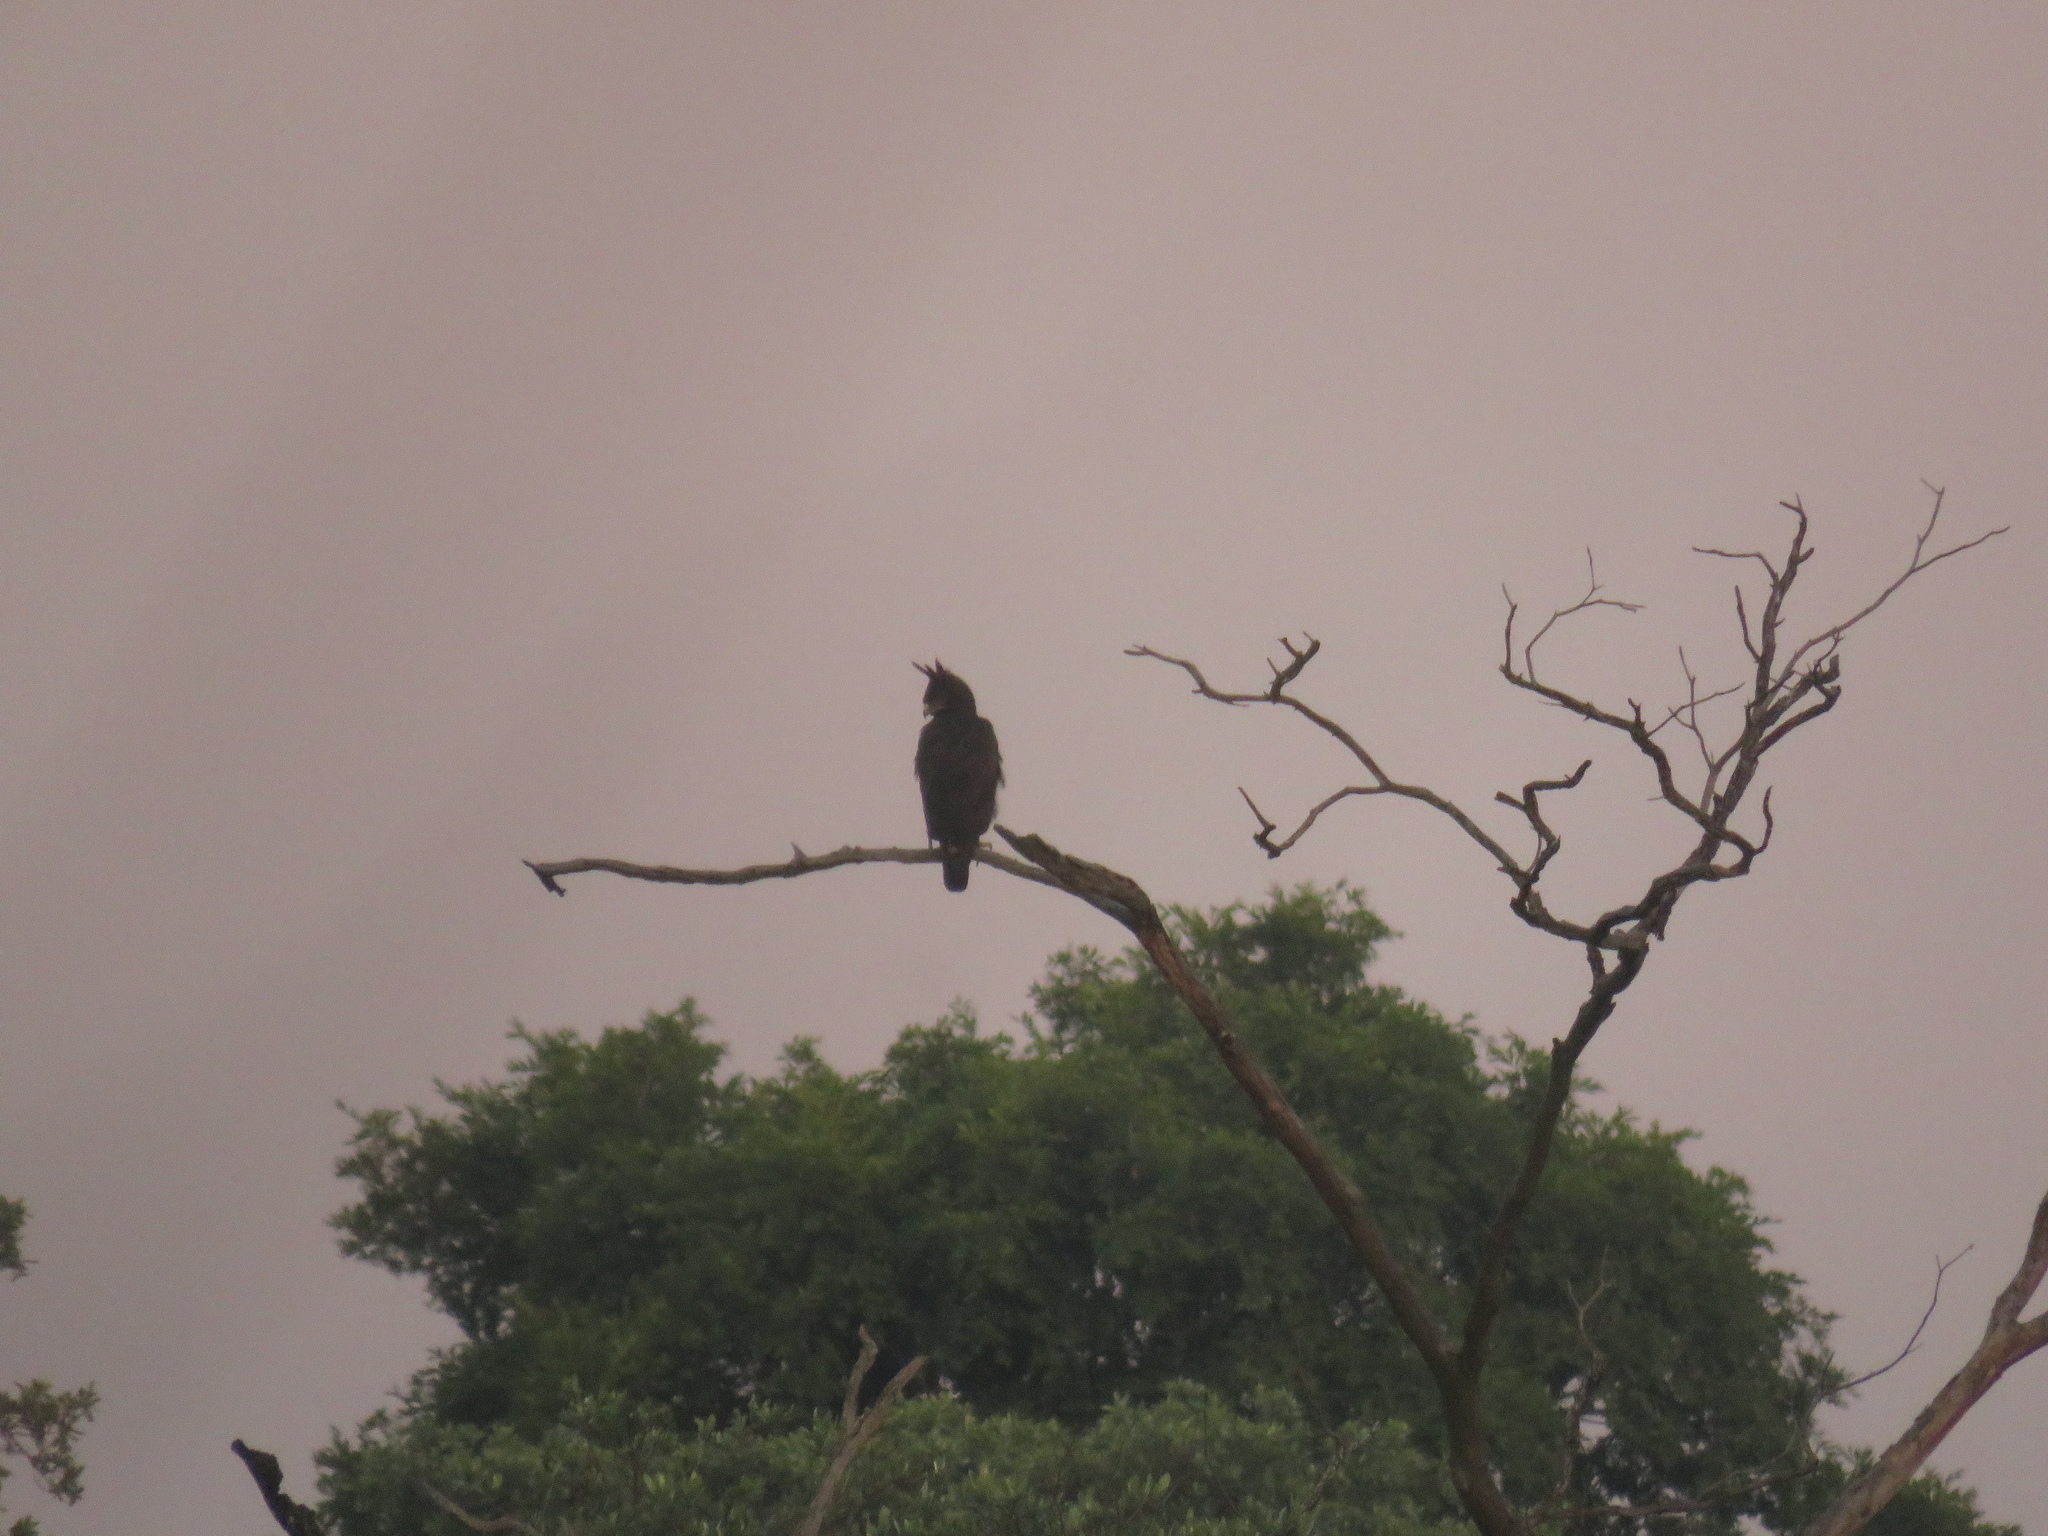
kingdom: Animalia
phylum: Chordata
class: Aves
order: Accipitriformes
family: Accipitridae
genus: Lophaetus
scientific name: Lophaetus occipitalis
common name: Long-crested eagle
